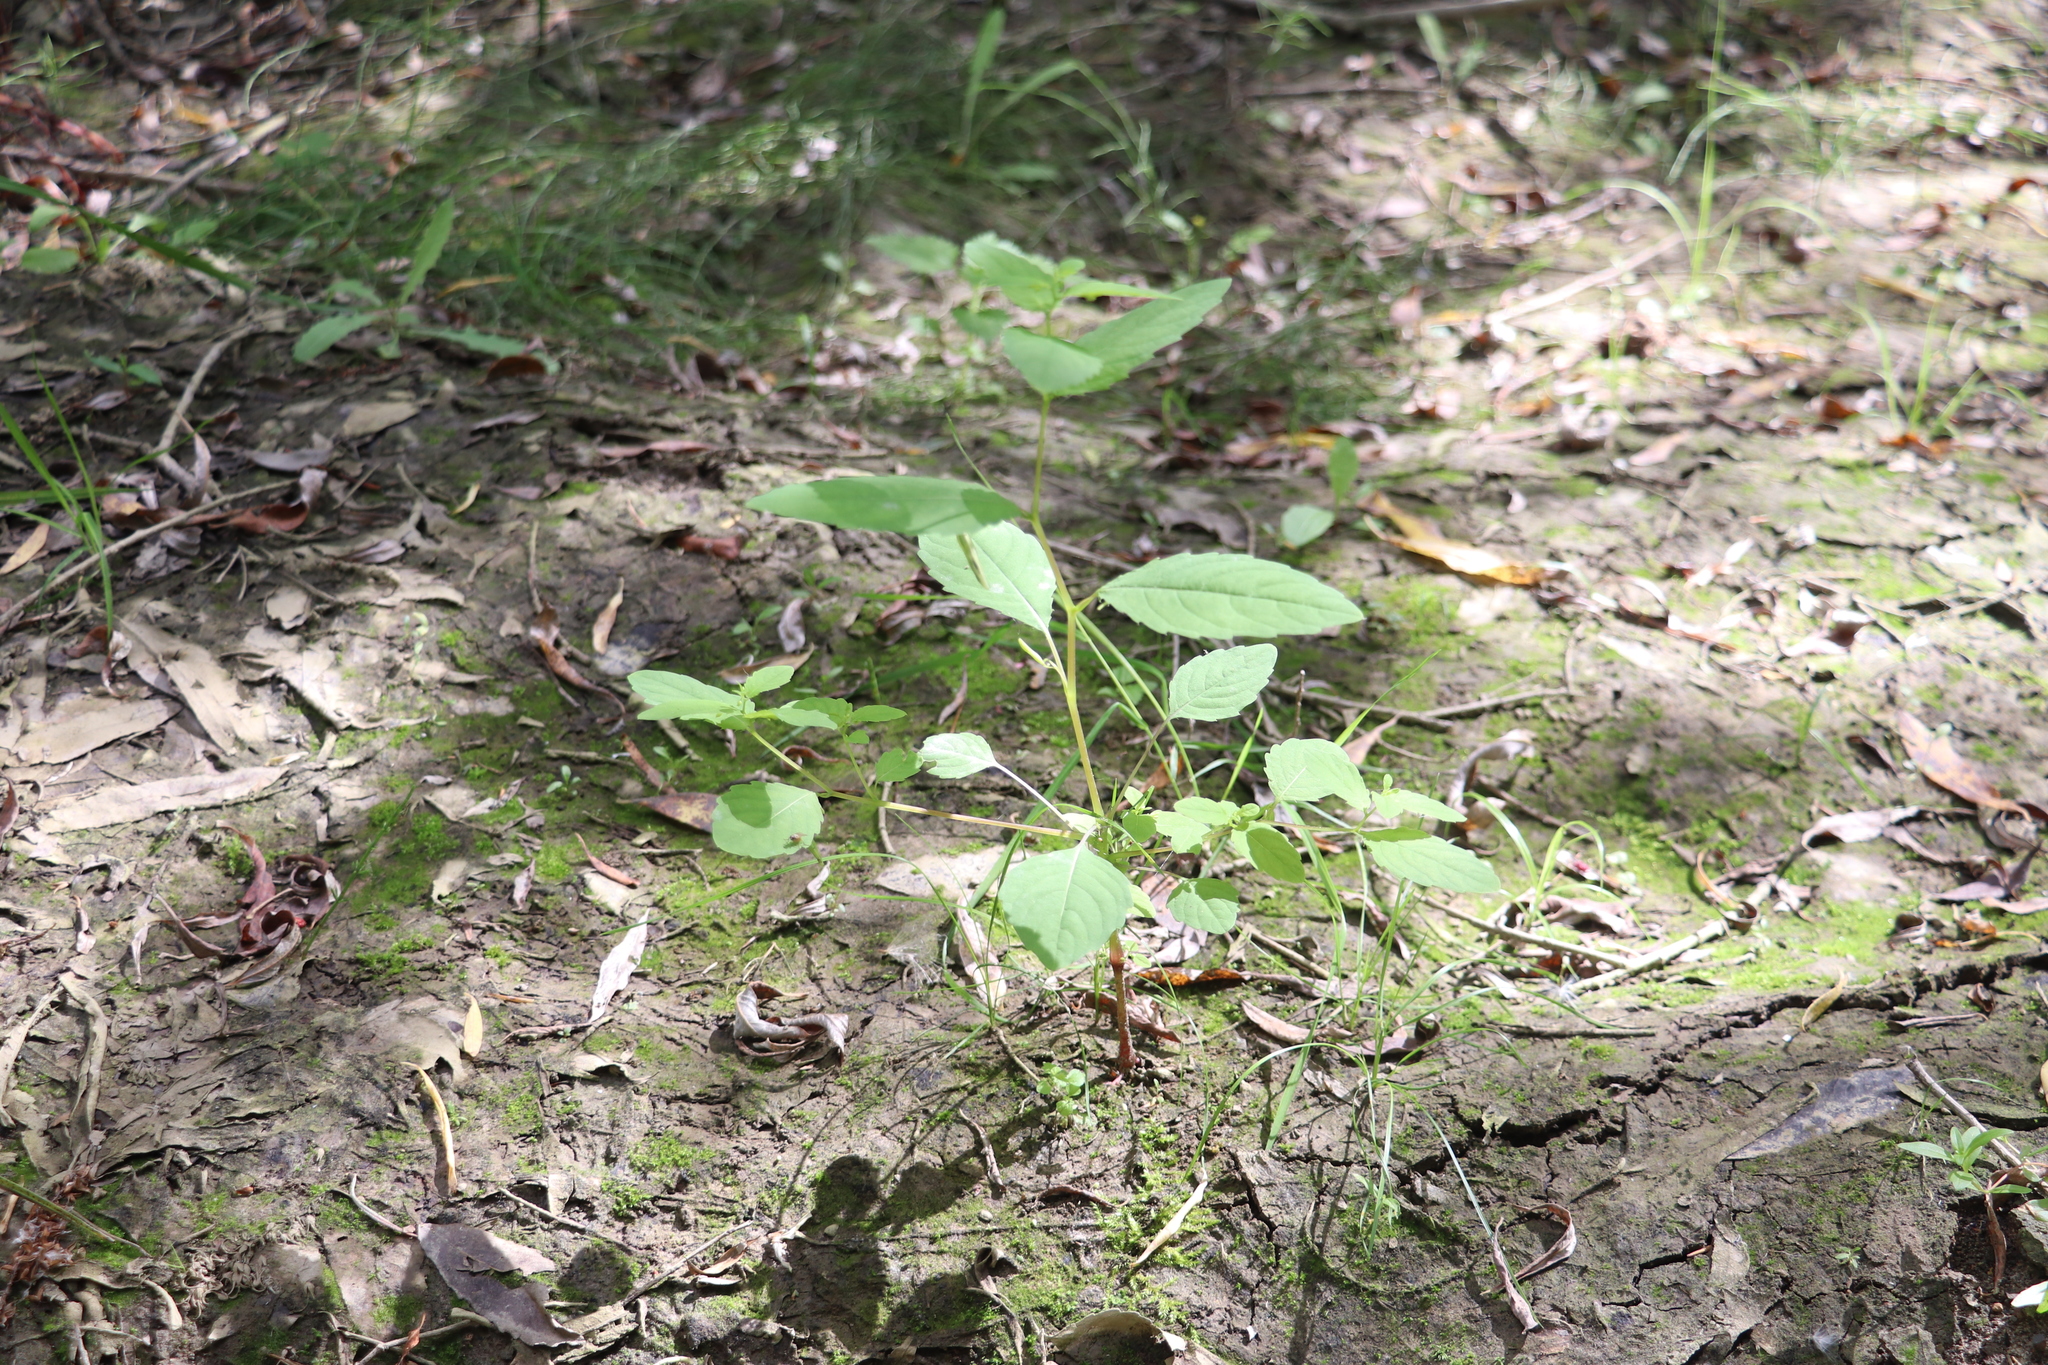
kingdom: Plantae
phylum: Tracheophyta
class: Magnoliopsida
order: Ericales
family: Balsaminaceae
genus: Impatiens
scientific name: Impatiens noli-tangere
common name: Touch-me-not balsam
